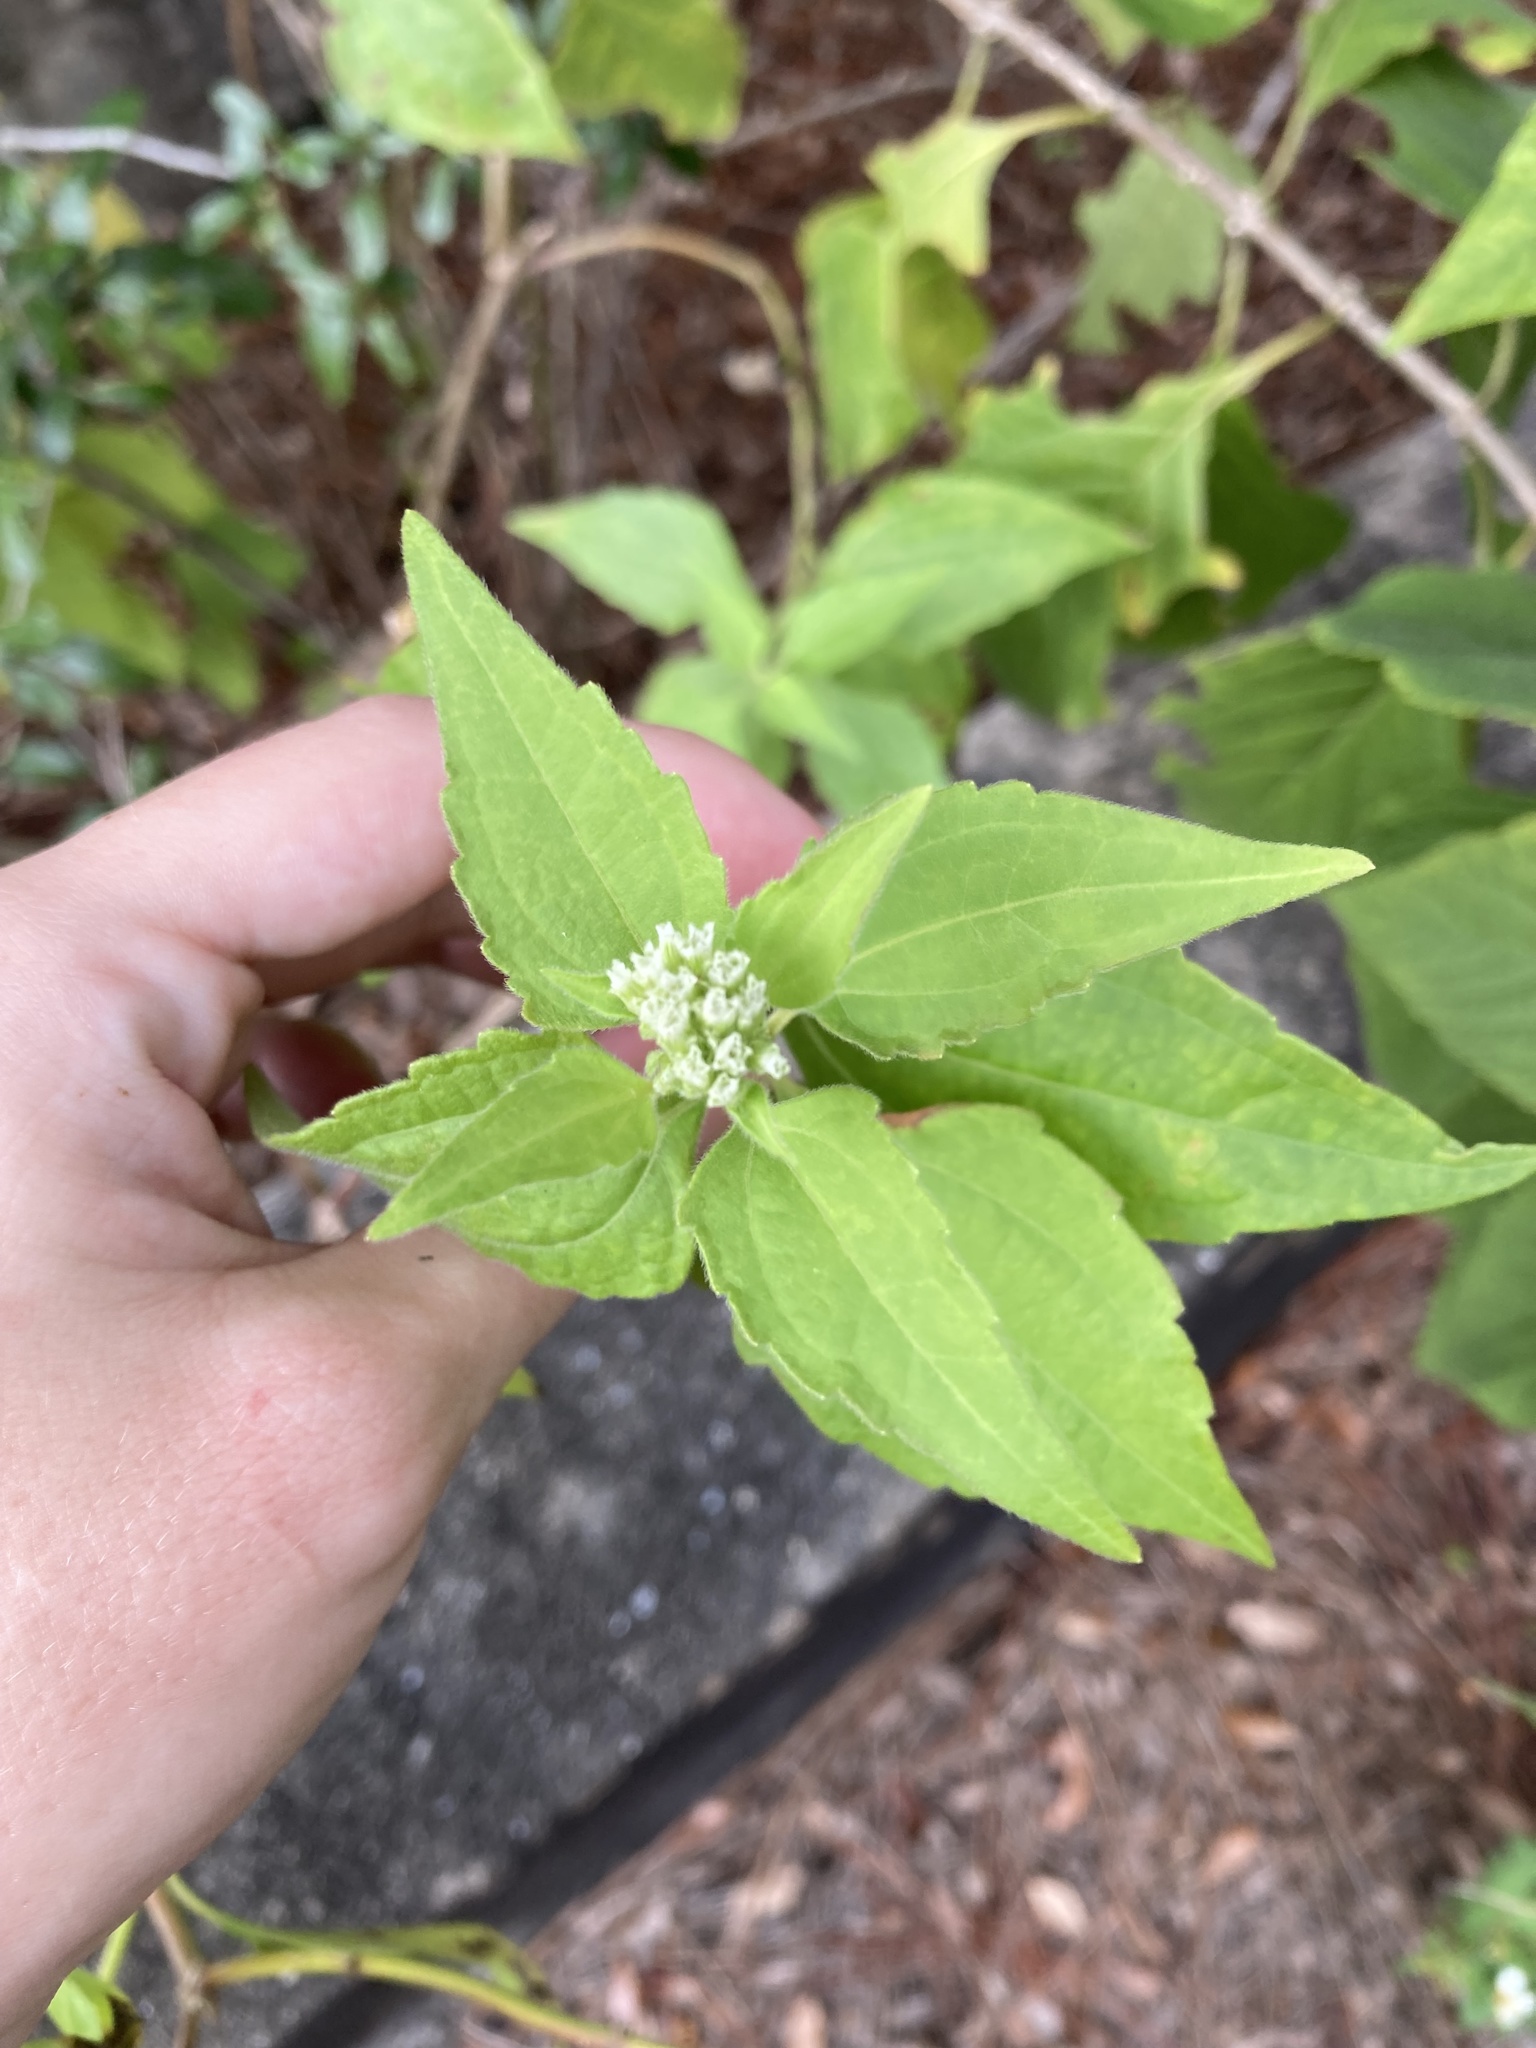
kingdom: Plantae
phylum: Tracheophyta
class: Magnoliopsida
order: Asterales
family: Asteraceae
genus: Chromolaena
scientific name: Chromolaena odorata
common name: Siamweed
